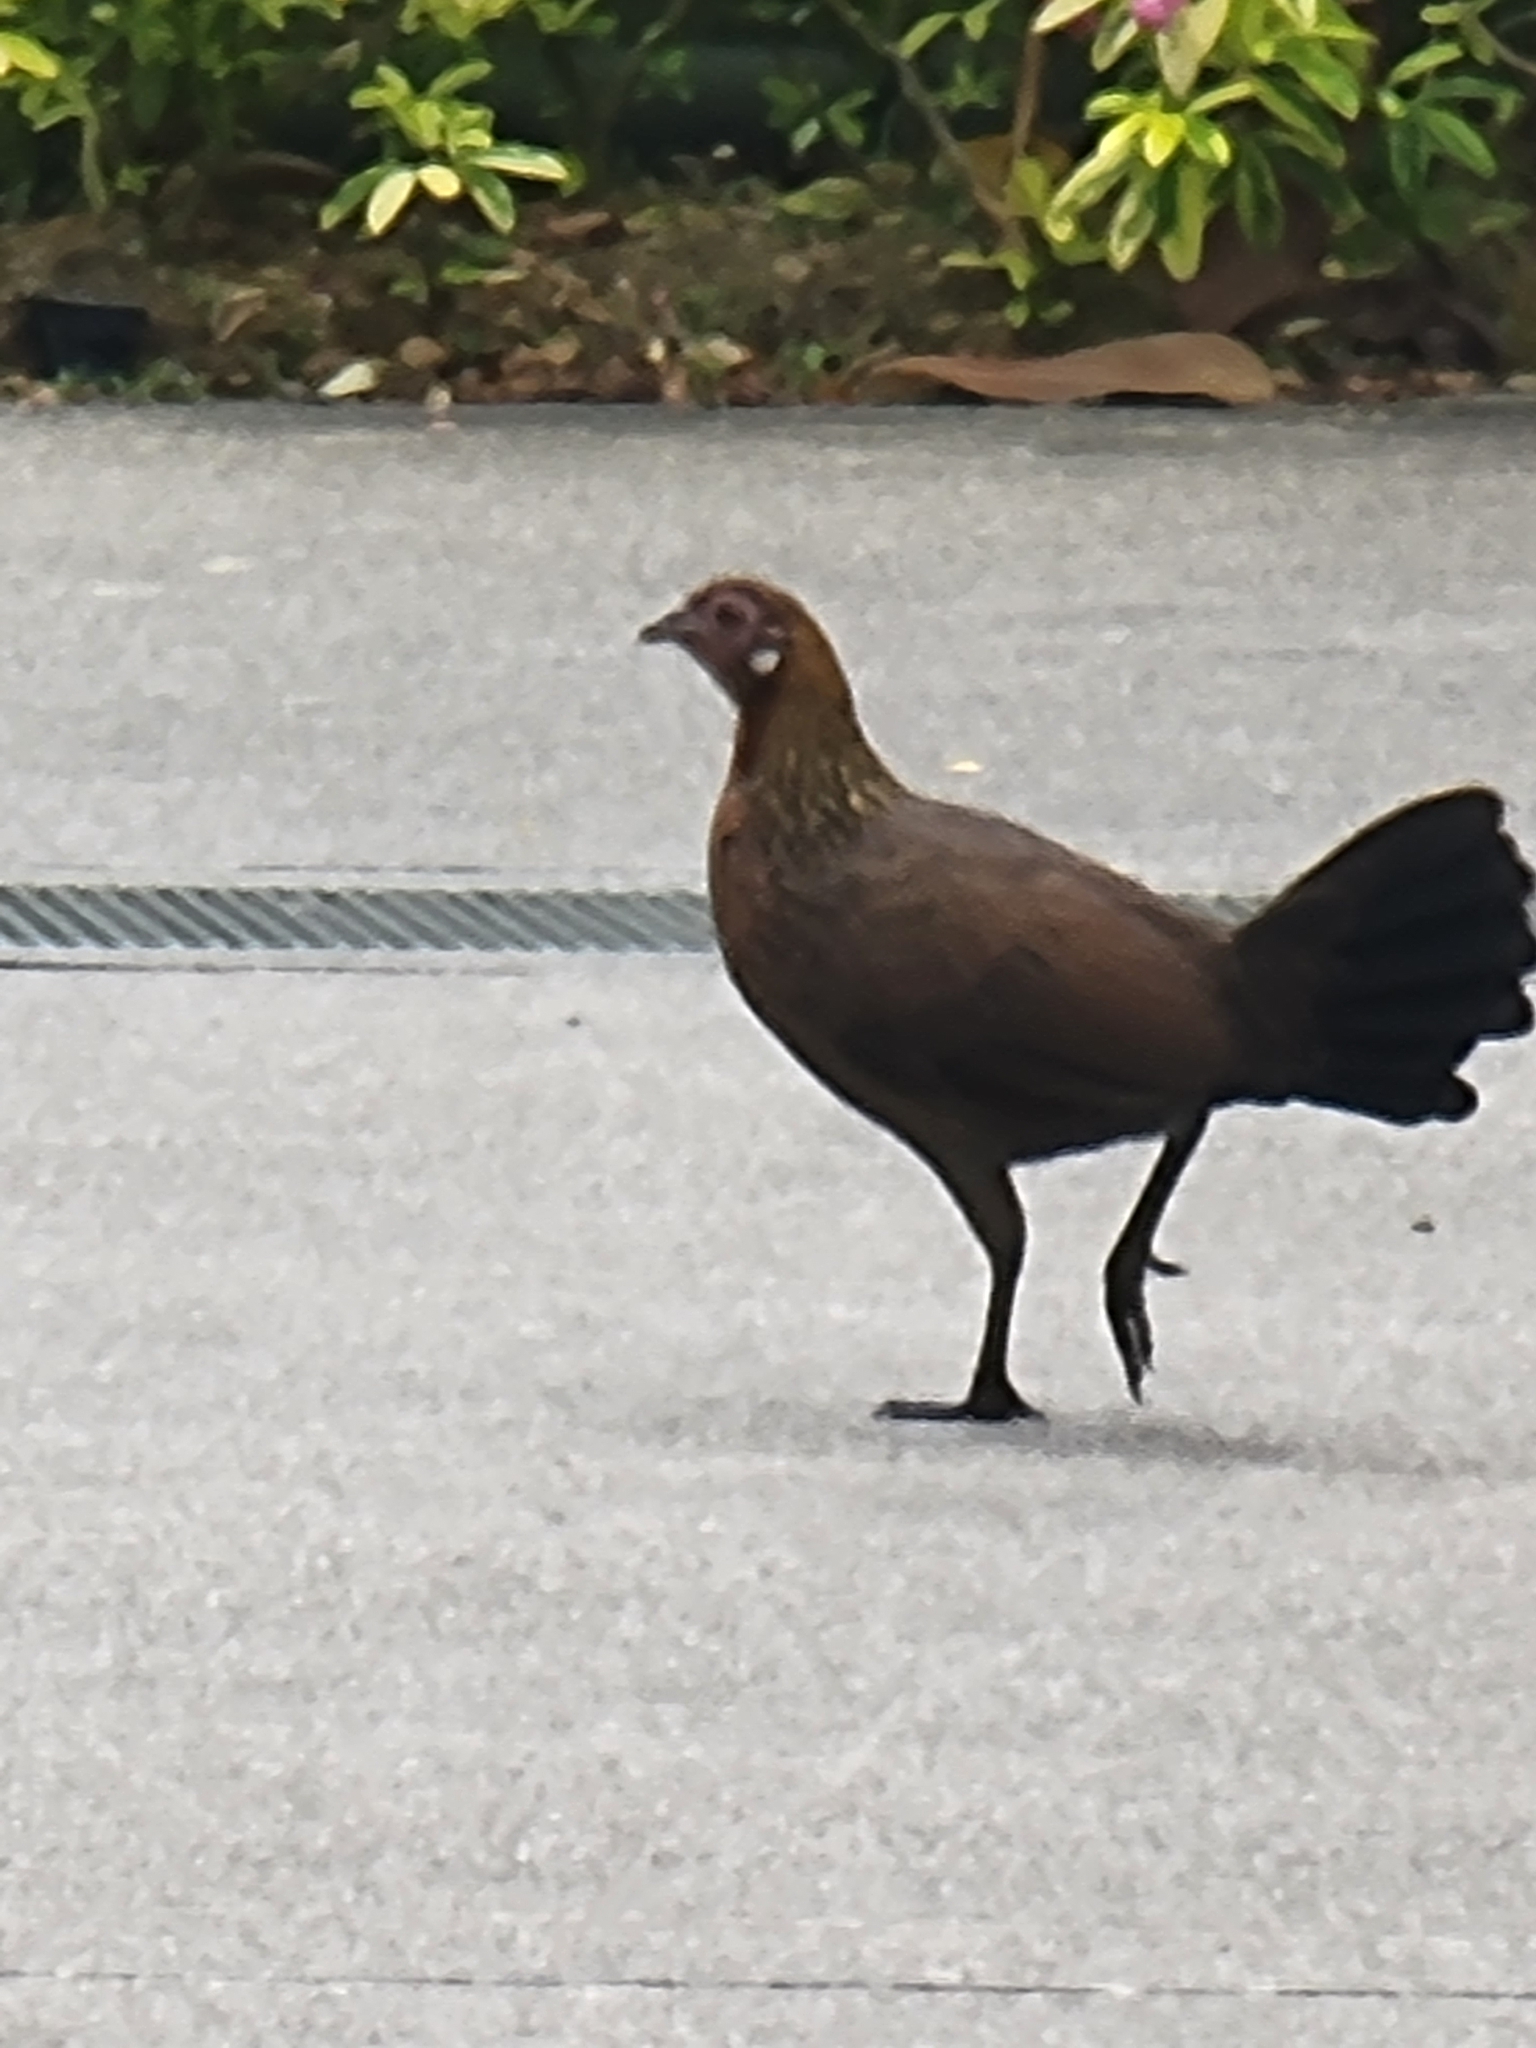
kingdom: Animalia
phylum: Chordata
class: Aves
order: Galliformes
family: Phasianidae
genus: Gallus
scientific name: Gallus gallus
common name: Red junglefowl
